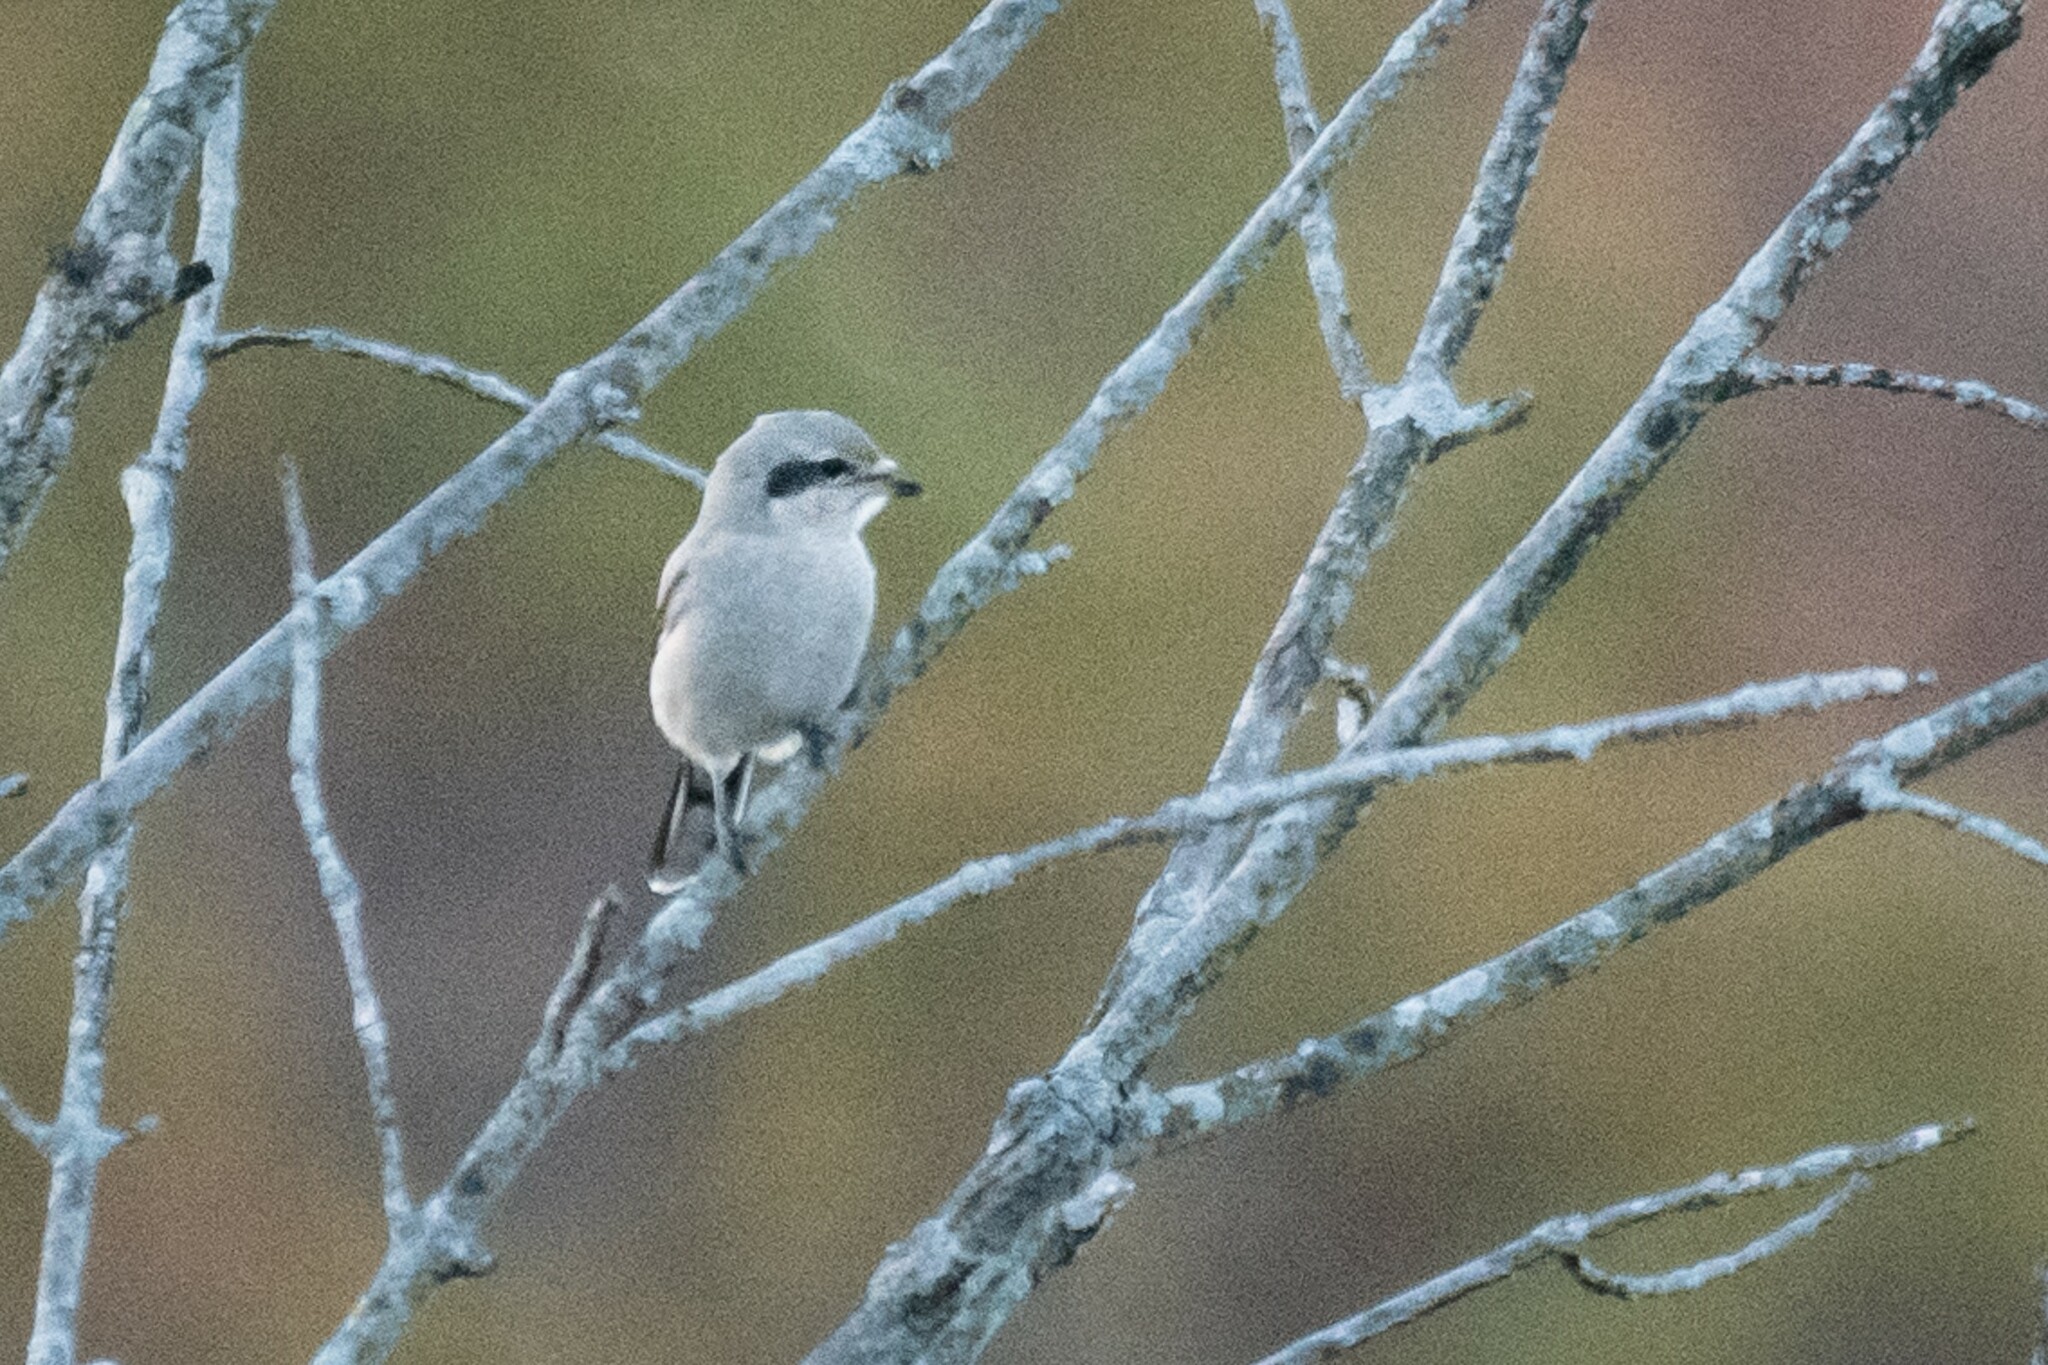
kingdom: Animalia
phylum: Chordata
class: Aves
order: Passeriformes
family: Laniidae
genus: Lanius
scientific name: Lanius borealis
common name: Northern shrike
